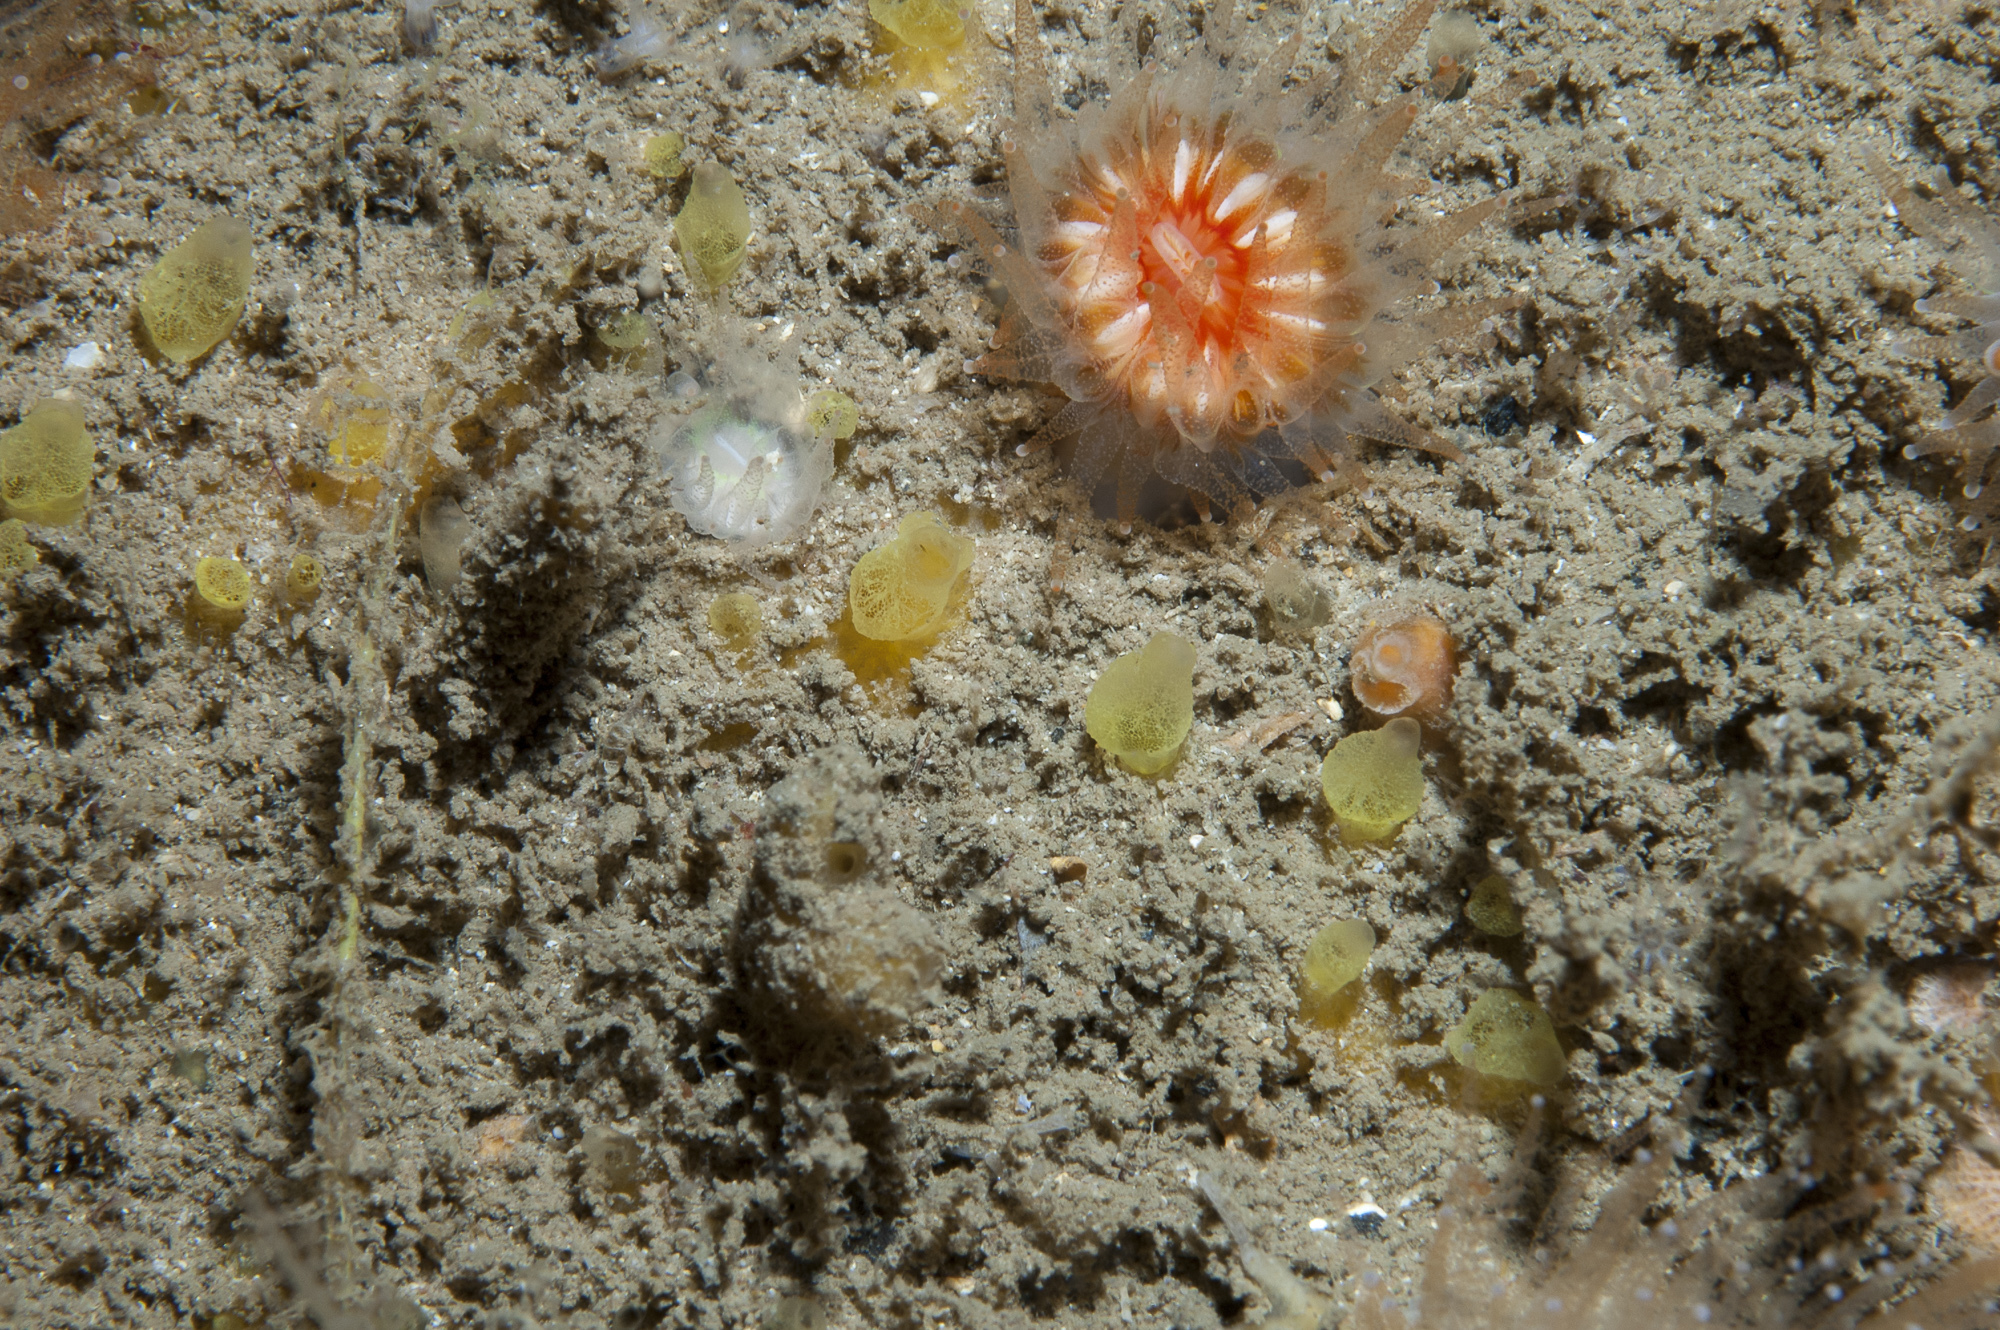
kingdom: Animalia
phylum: Porifera
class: Demospongiae
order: Poecilosclerida
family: Hymedesmiidae
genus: Hymedesmia
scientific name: Hymedesmia rathlinia
